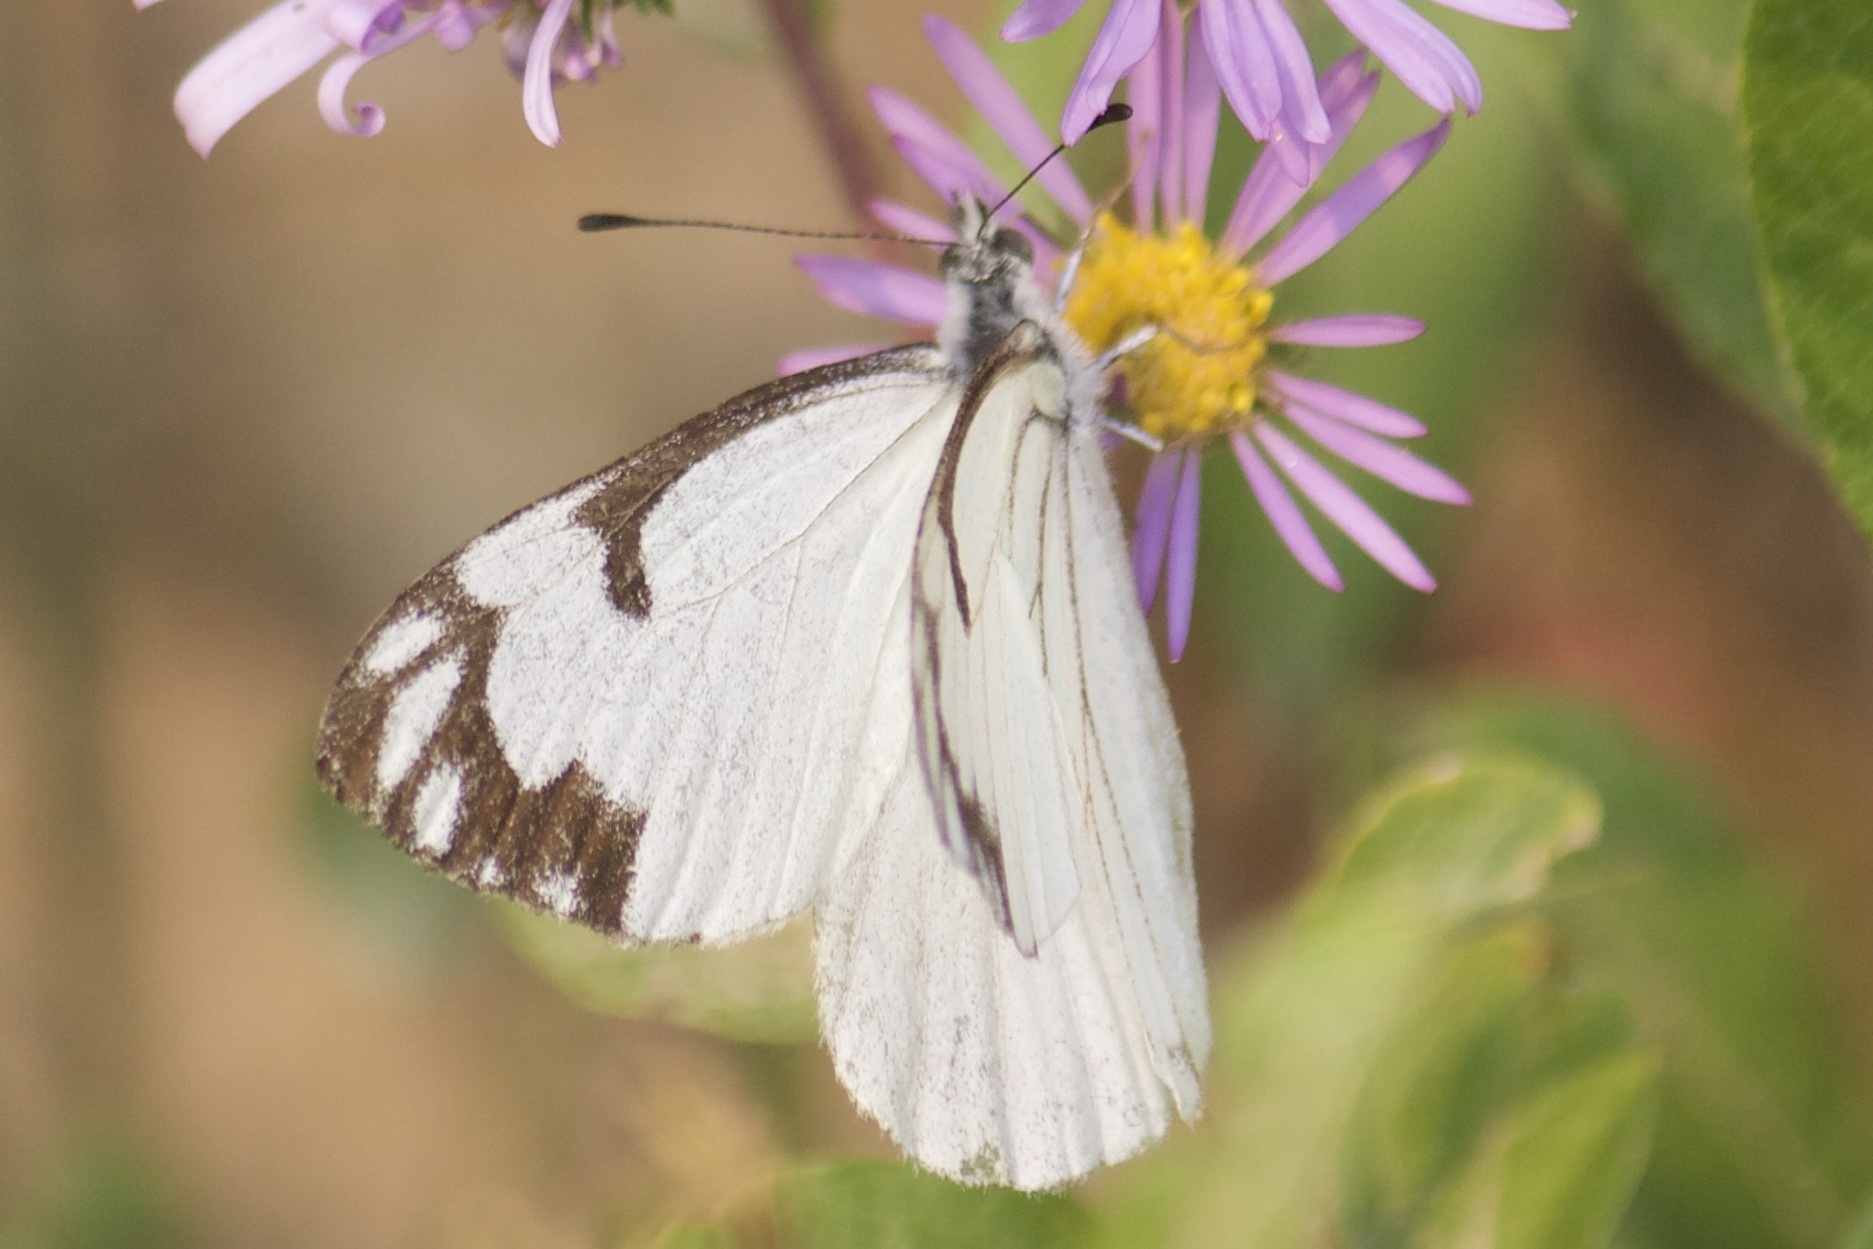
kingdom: Animalia
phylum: Arthropoda
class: Insecta
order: Lepidoptera
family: Pieridae
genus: Neophasia
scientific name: Neophasia menapia
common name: Pine white
